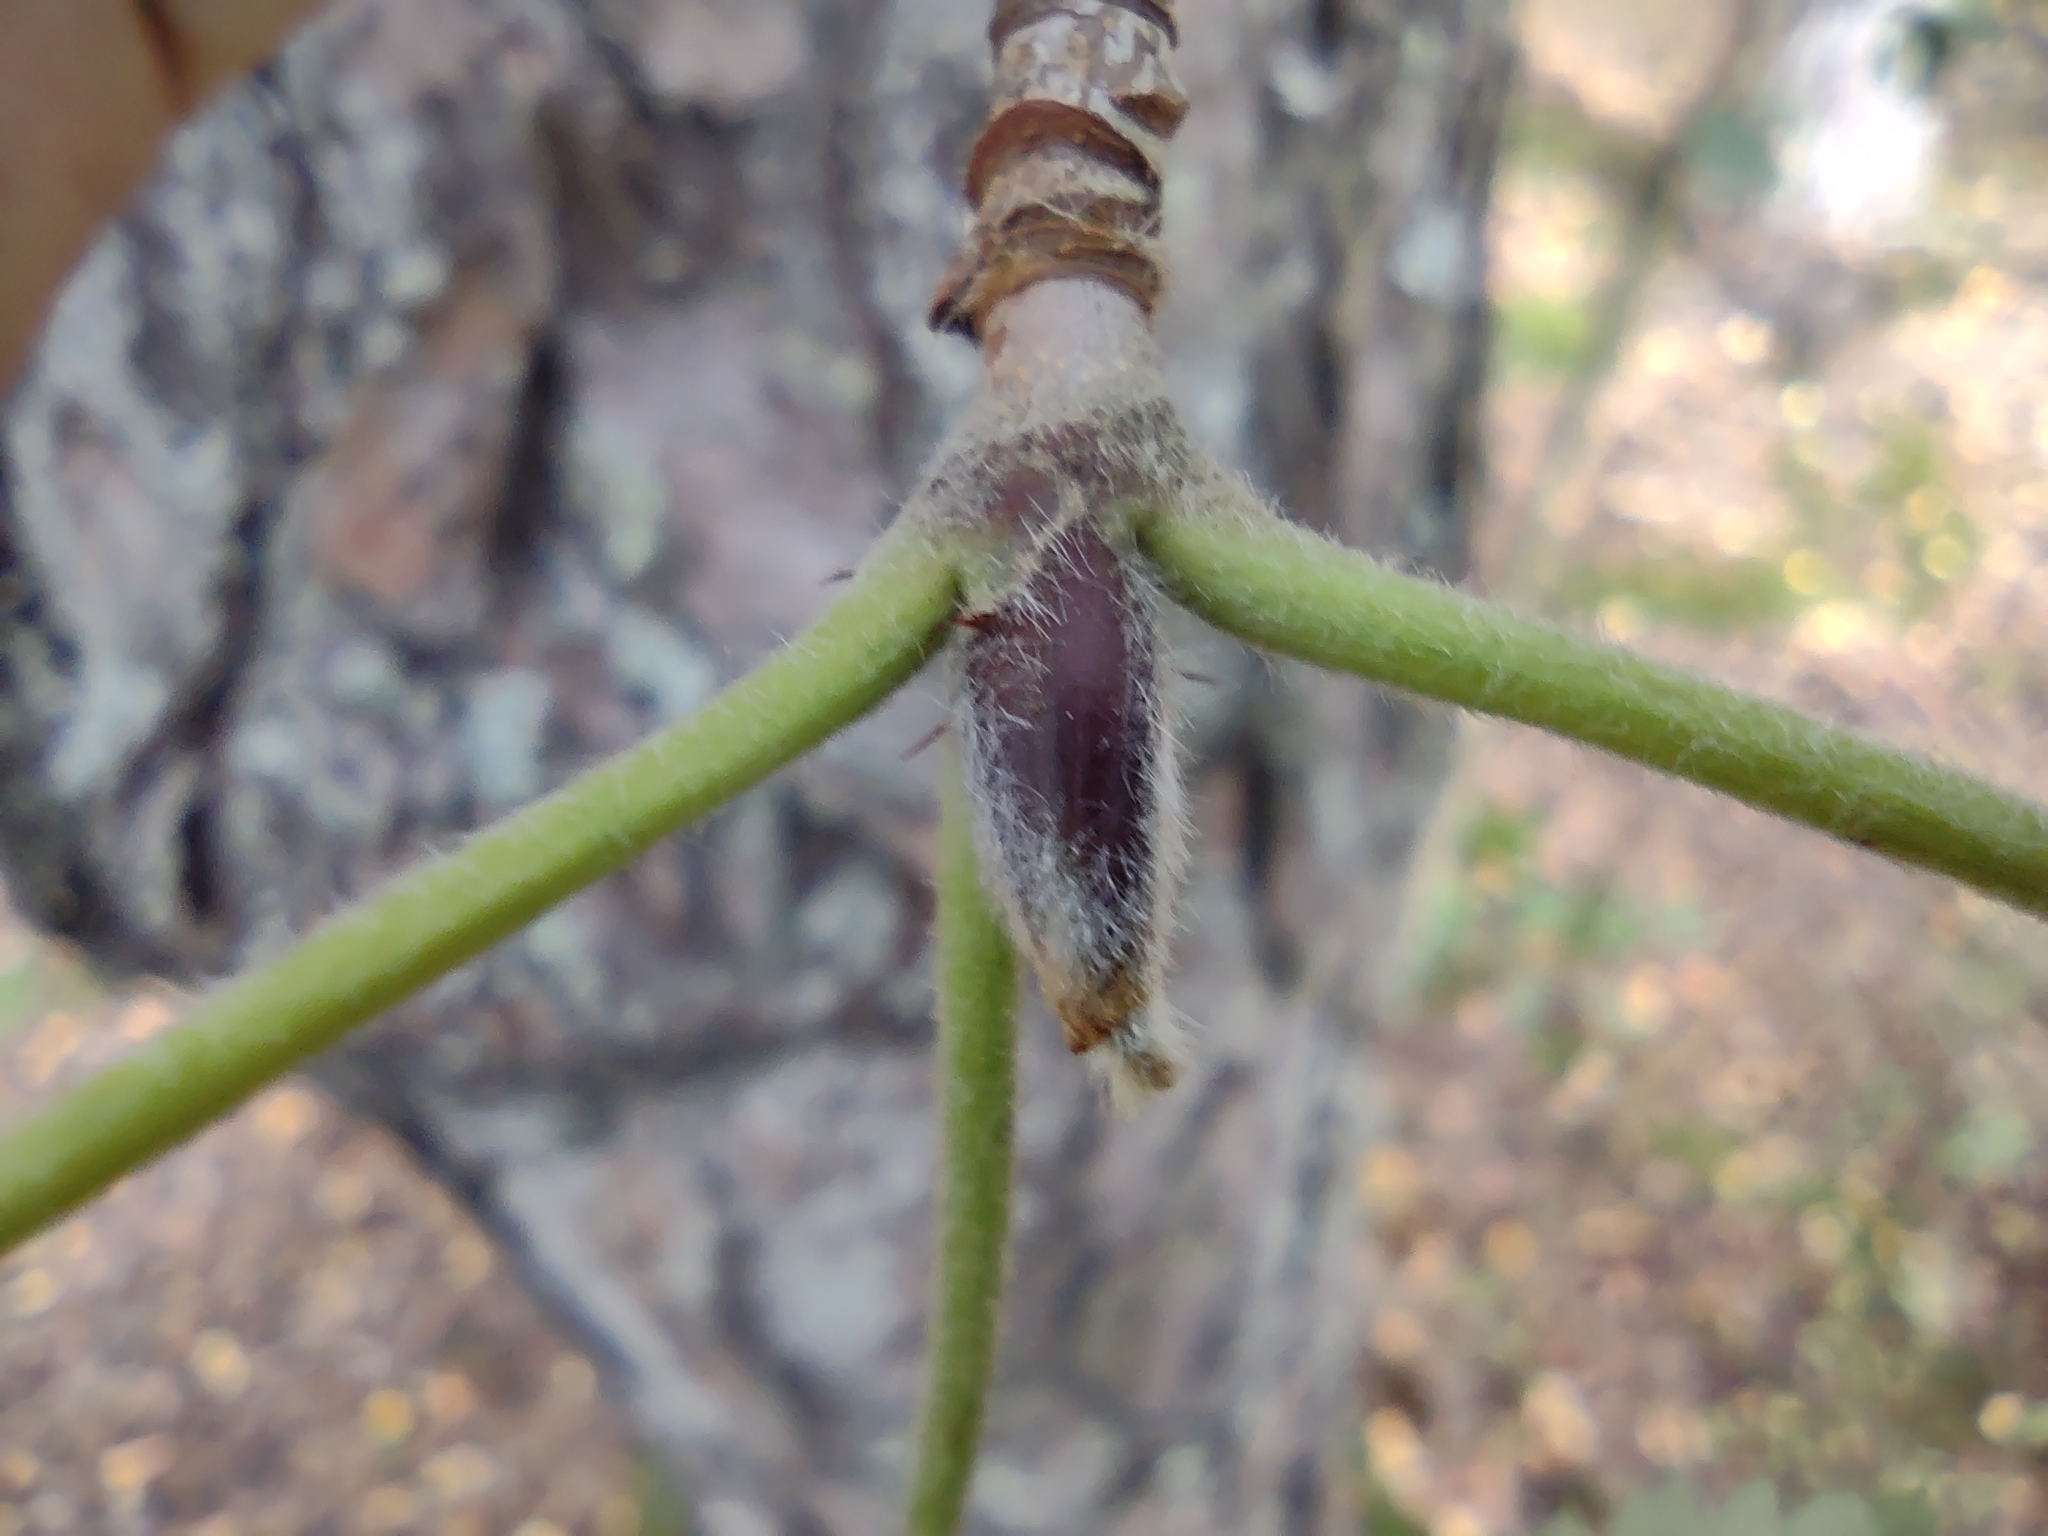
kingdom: Plantae
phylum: Tracheophyta
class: Magnoliopsida
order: Rosales
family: Rosaceae
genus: Sorbus
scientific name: Sorbus aucuparia
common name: Rowan
